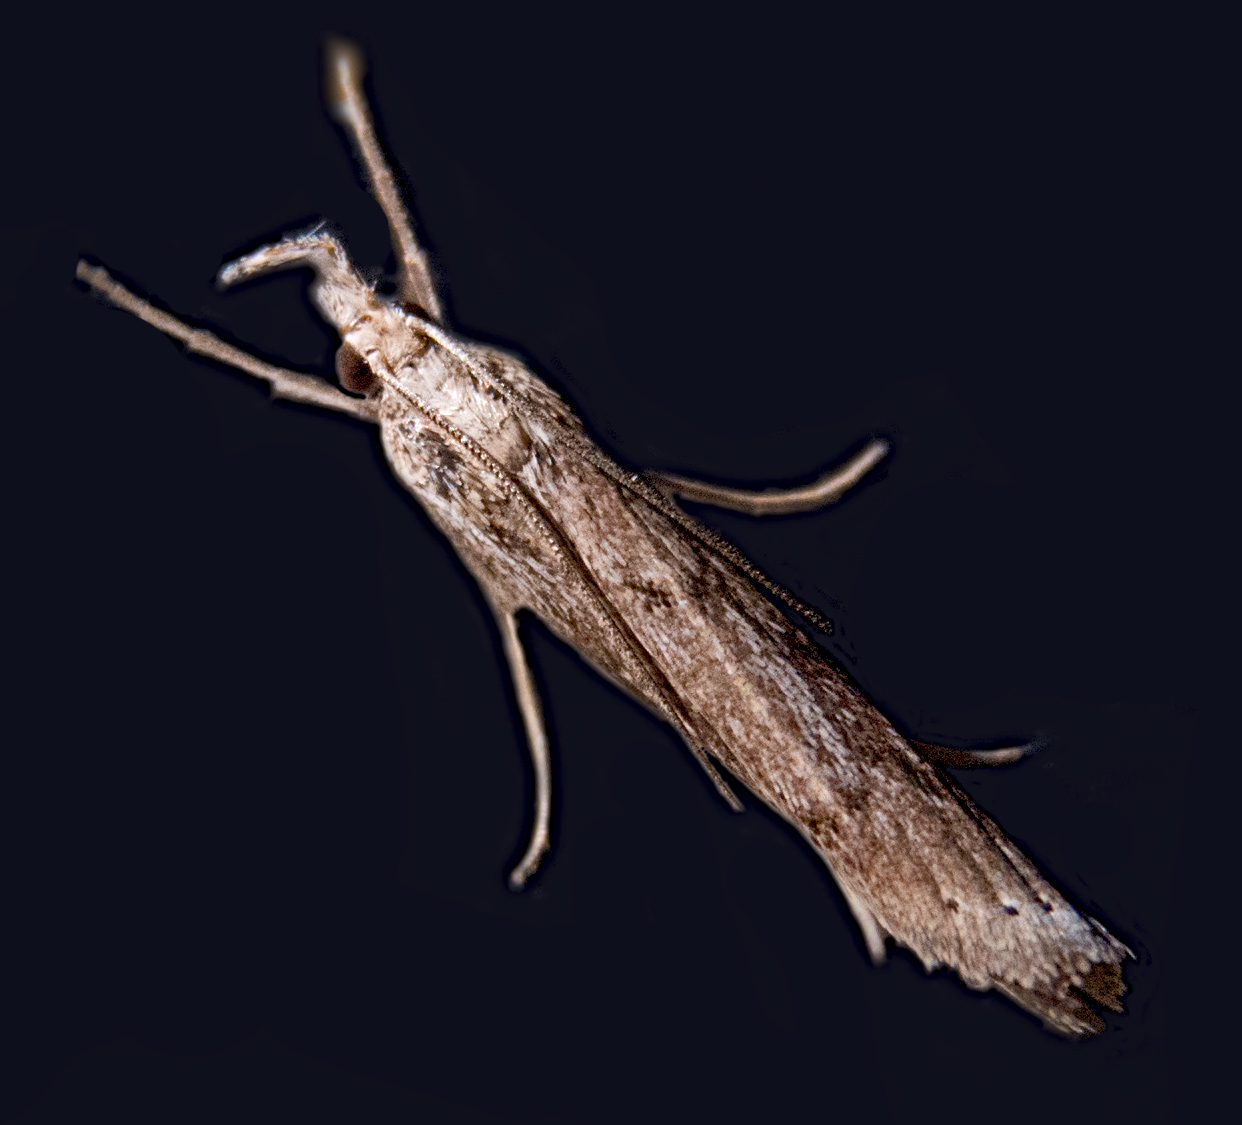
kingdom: Animalia
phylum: Arthropoda
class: Insecta
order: Lepidoptera
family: Crambidae
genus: Pediasia
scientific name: Pediasia contaminella
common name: Waste grass-veneer
